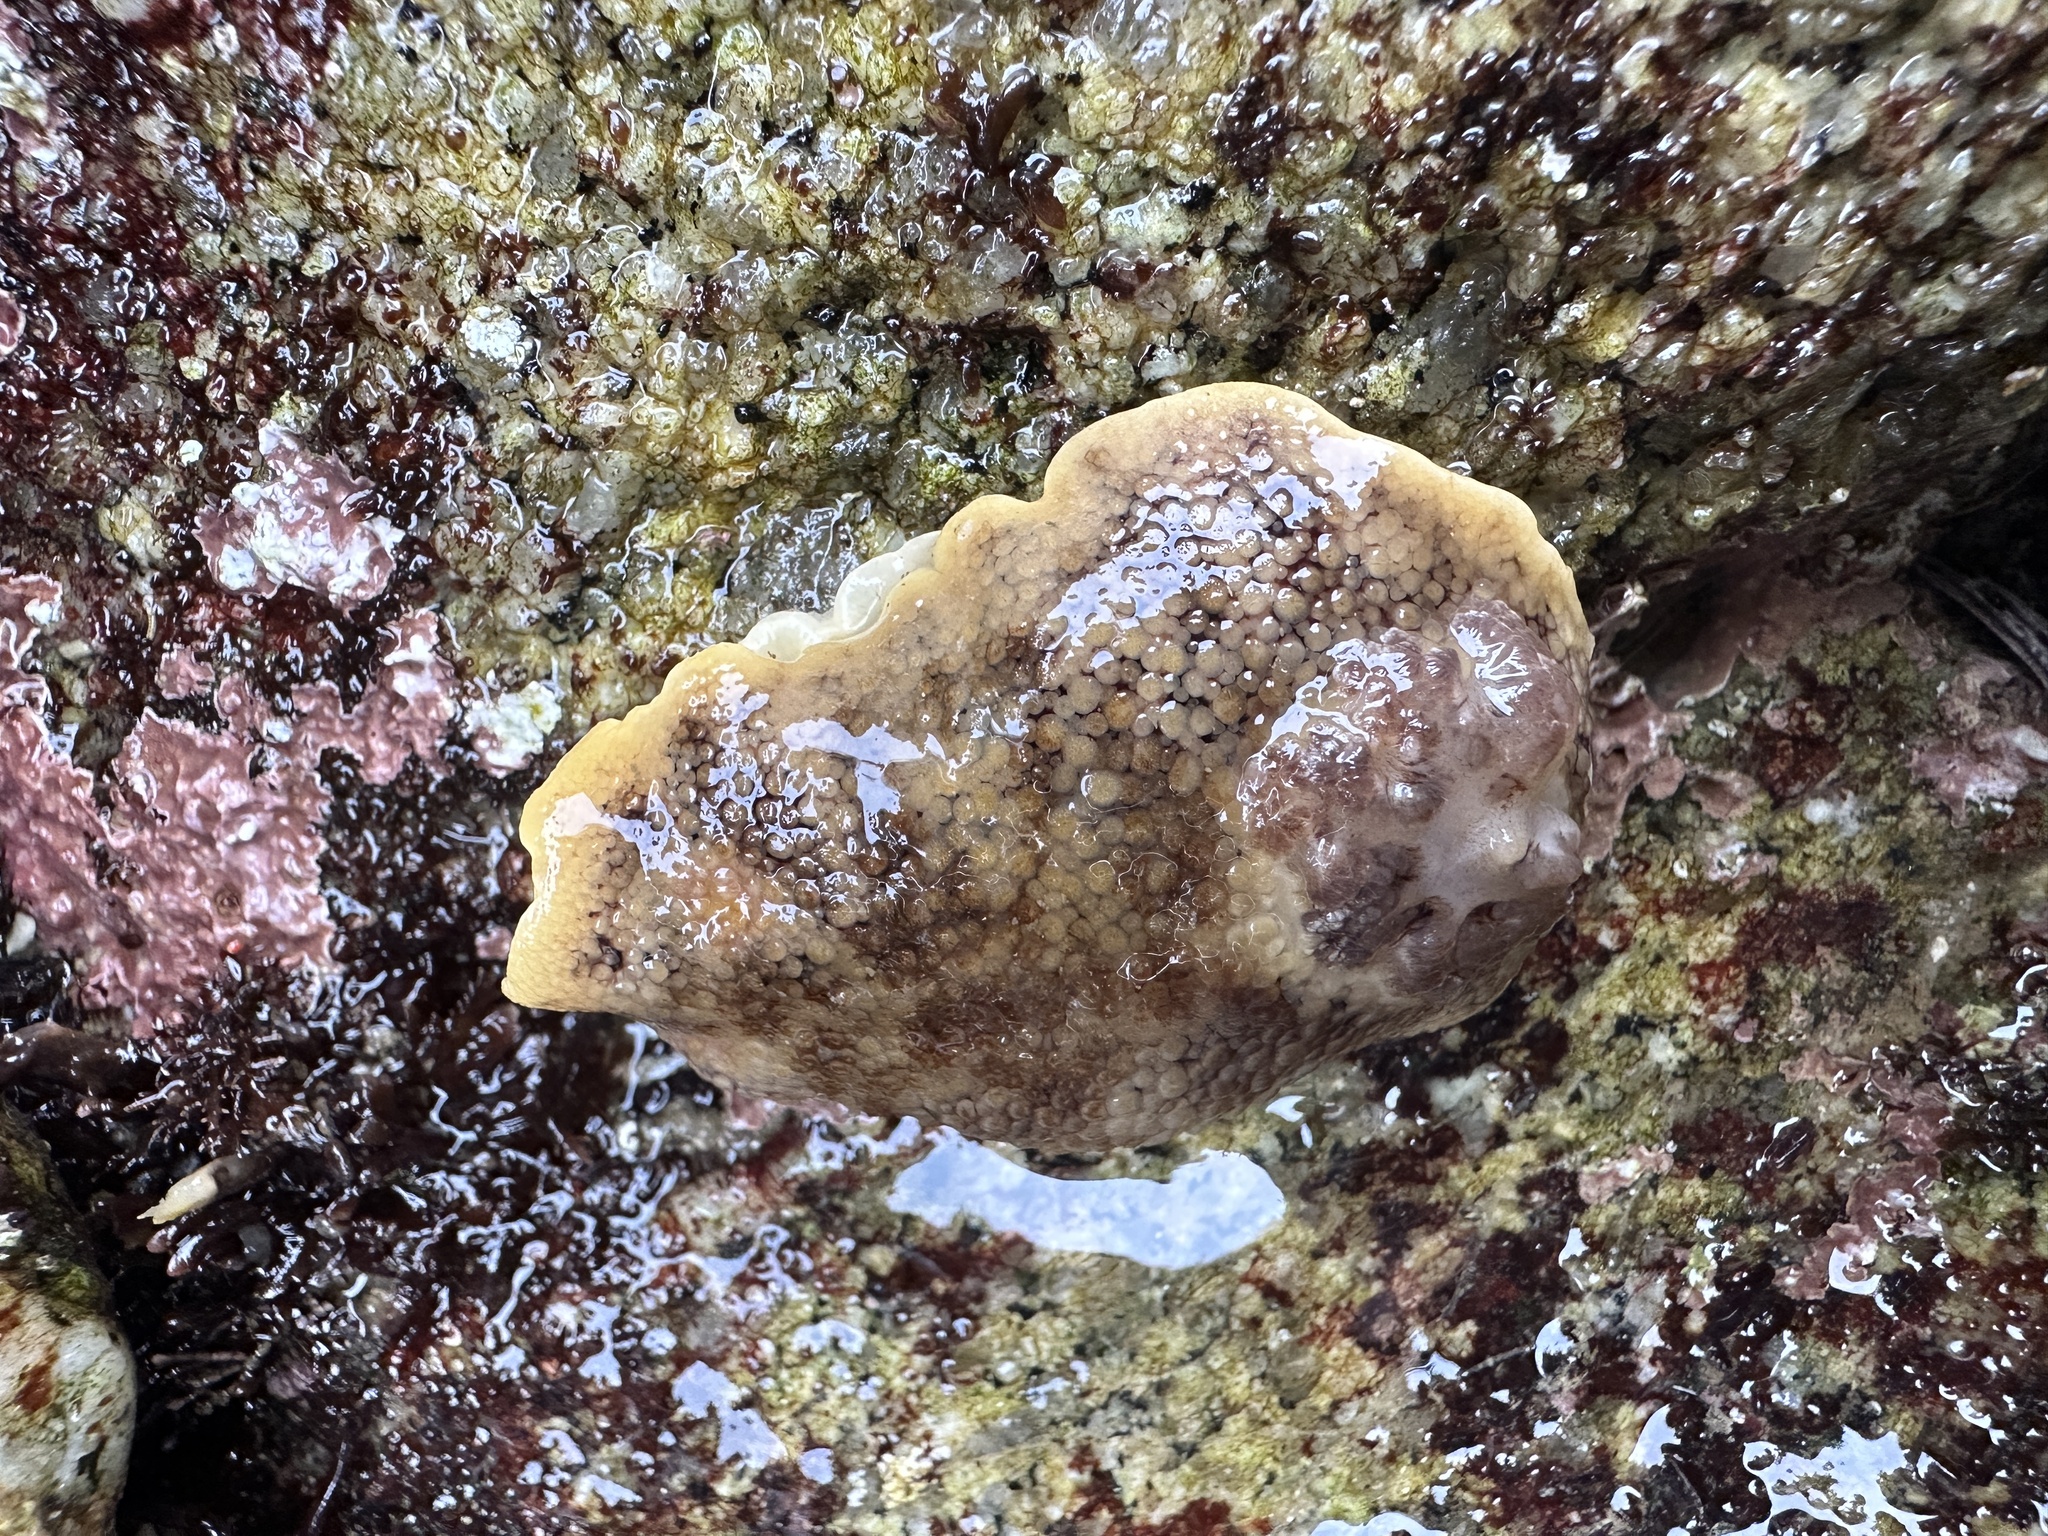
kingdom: Animalia
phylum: Mollusca
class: Gastropoda
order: Nudibranchia
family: Discodorididae
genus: Peltodoris
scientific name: Peltodoris nobilis
